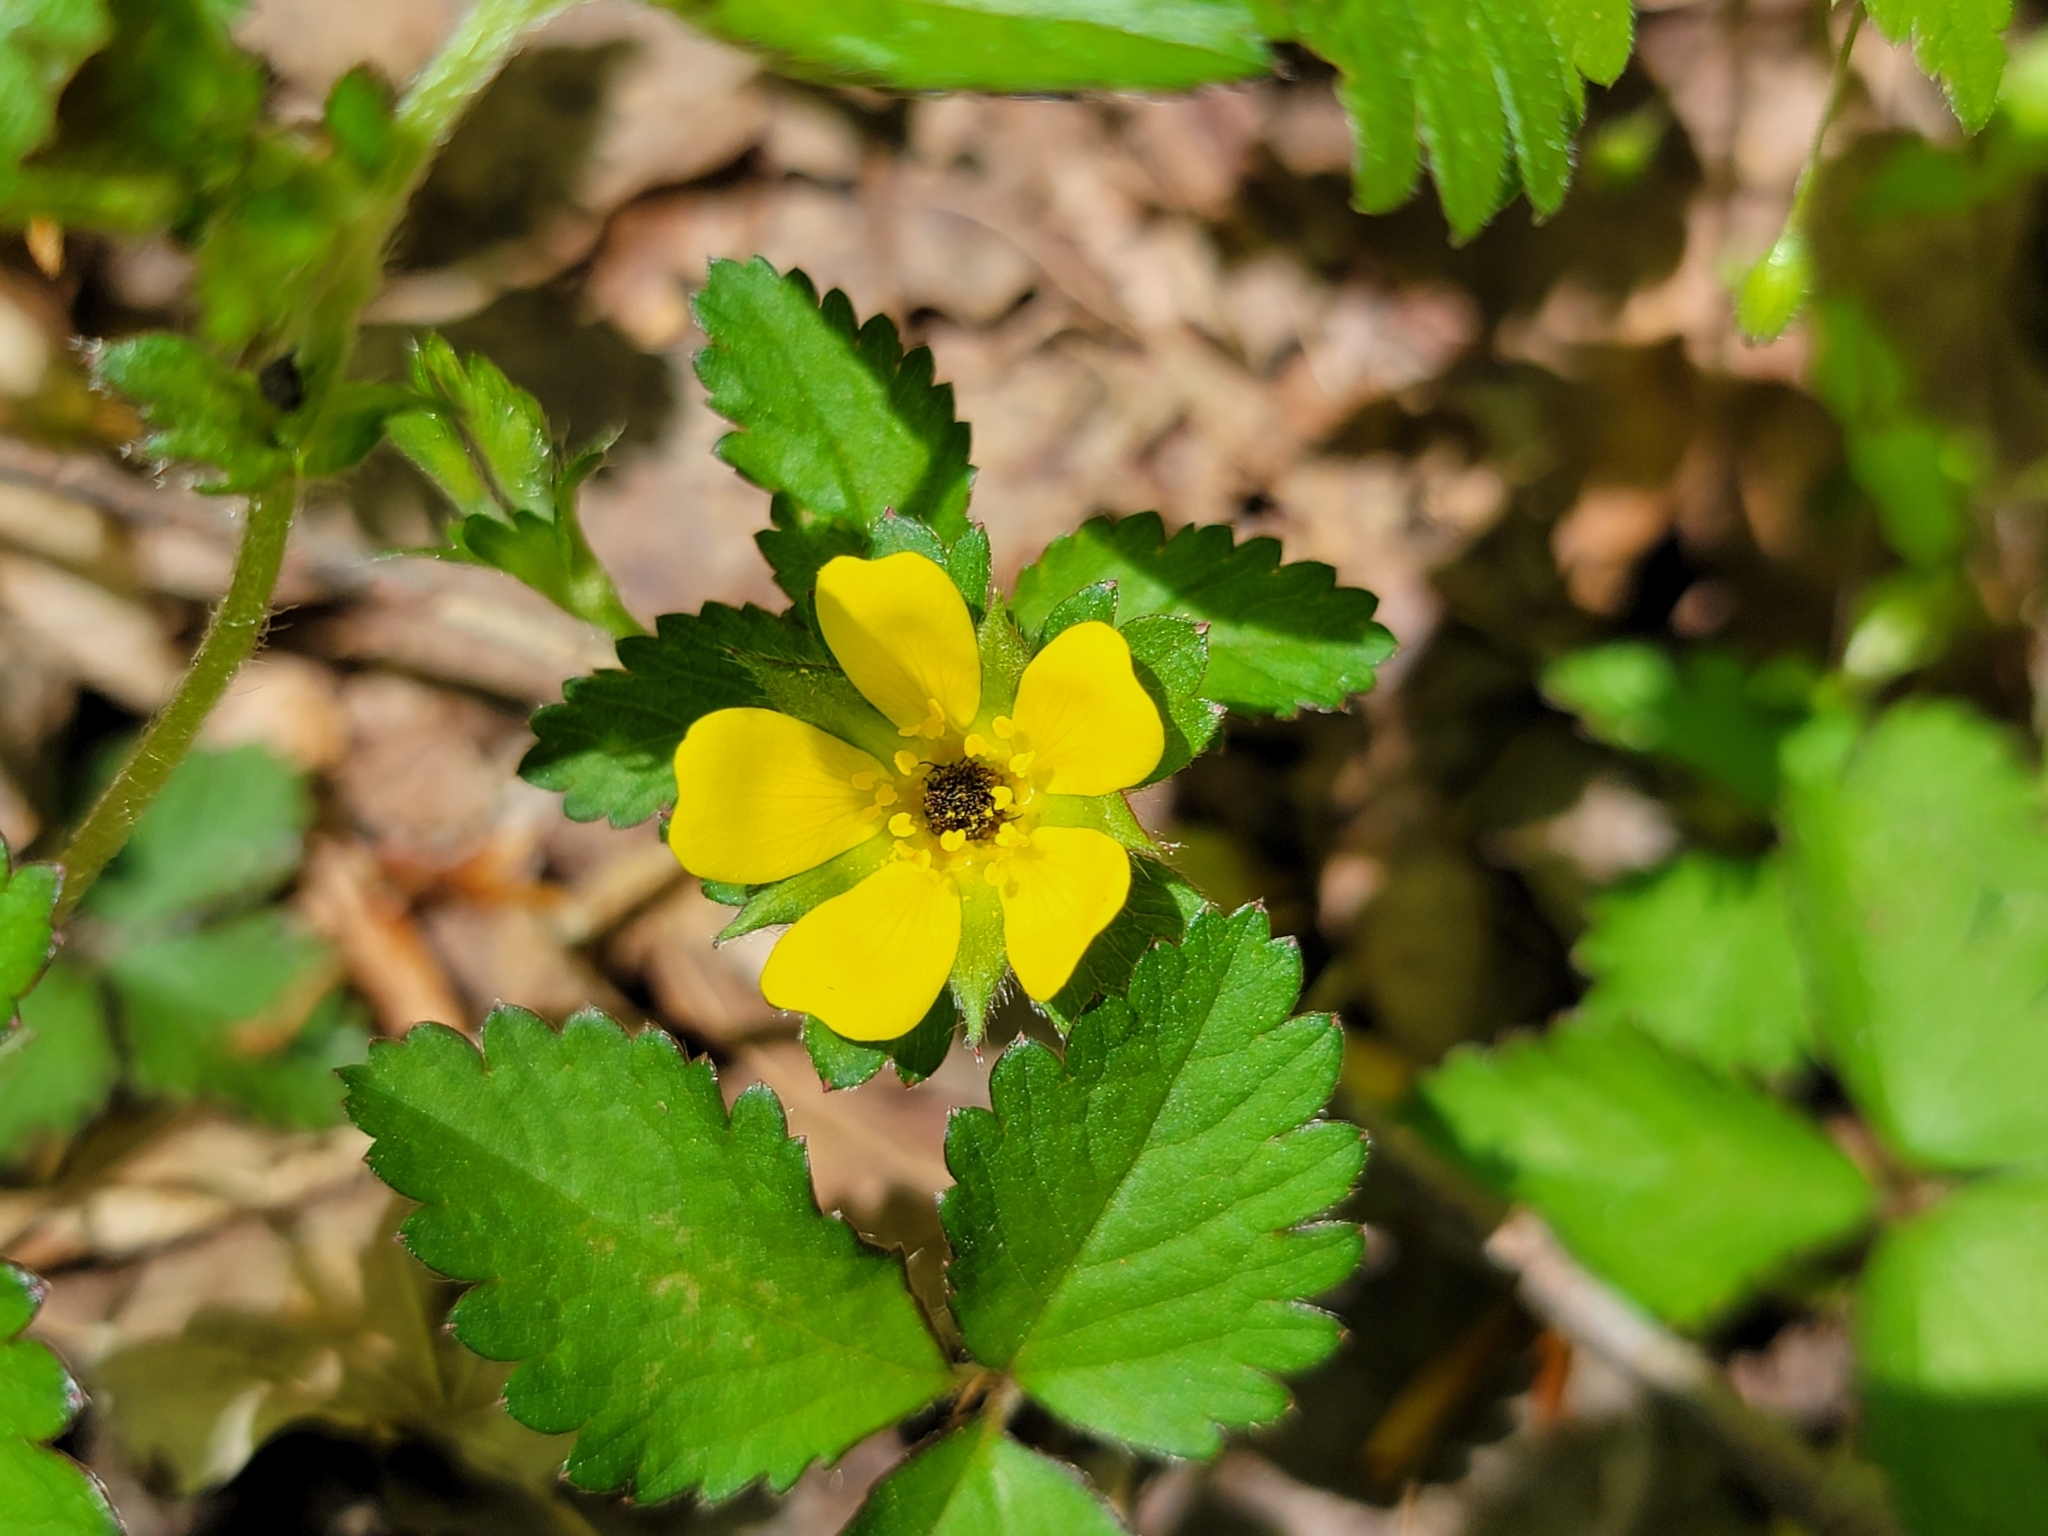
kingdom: Plantae
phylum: Tracheophyta
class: Magnoliopsida
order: Rosales
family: Rosaceae
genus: Potentilla
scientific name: Potentilla indica
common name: Yellow-flowered strawberry
